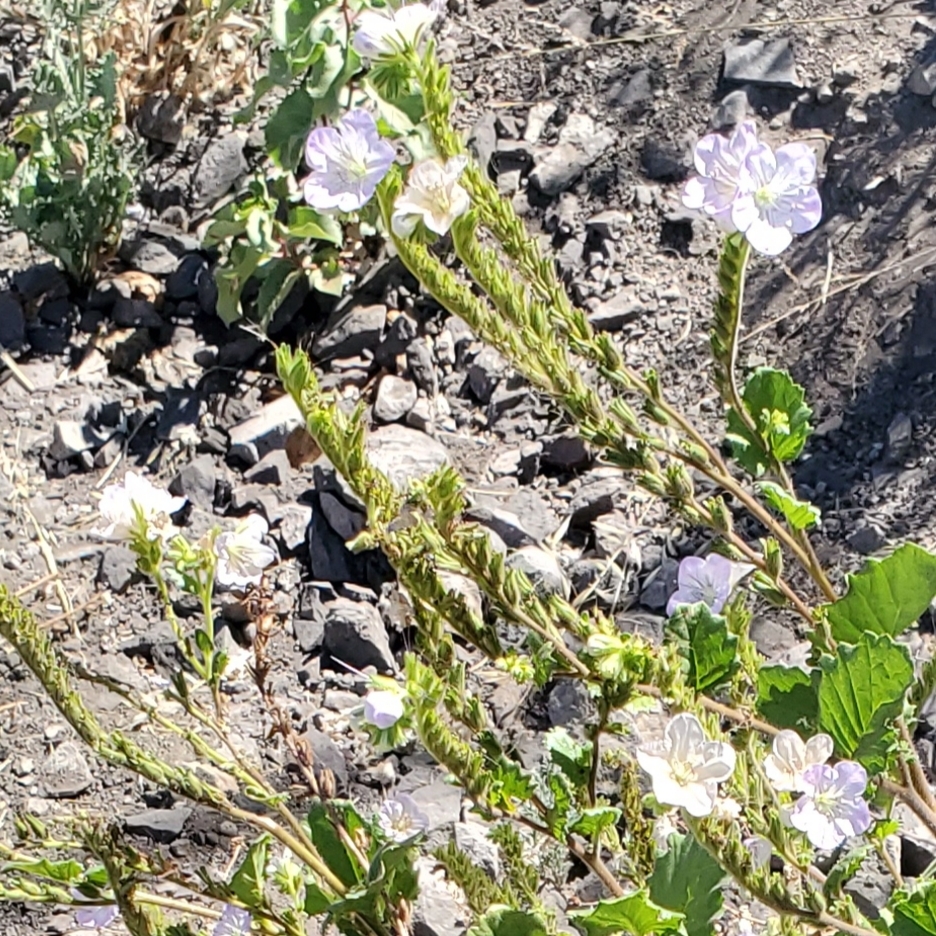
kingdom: Plantae
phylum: Tracheophyta
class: Magnoliopsida
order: Boraginales
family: Hydrophyllaceae
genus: Phacelia
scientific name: Phacelia grandiflora
